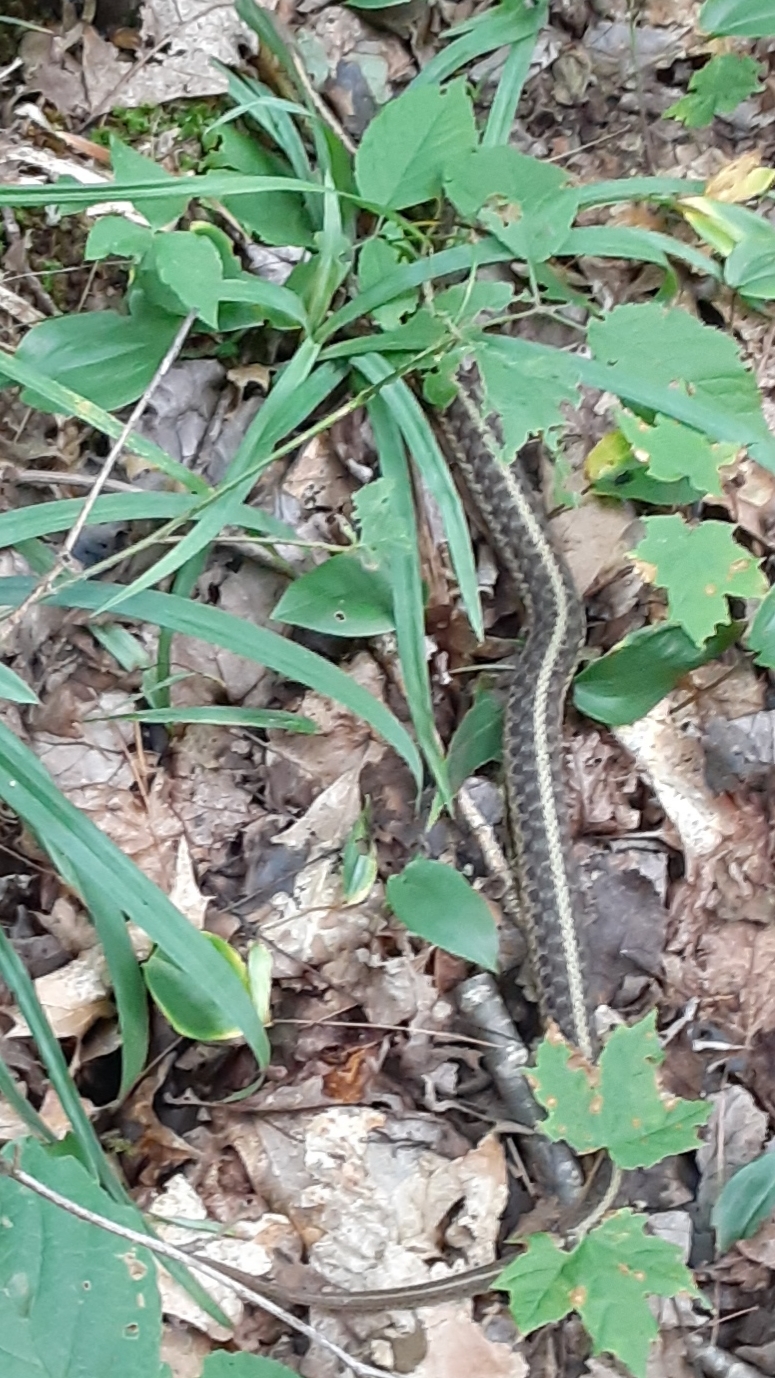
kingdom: Animalia
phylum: Chordata
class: Squamata
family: Colubridae
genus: Thamnophis
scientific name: Thamnophis sirtalis
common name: Common garter snake
